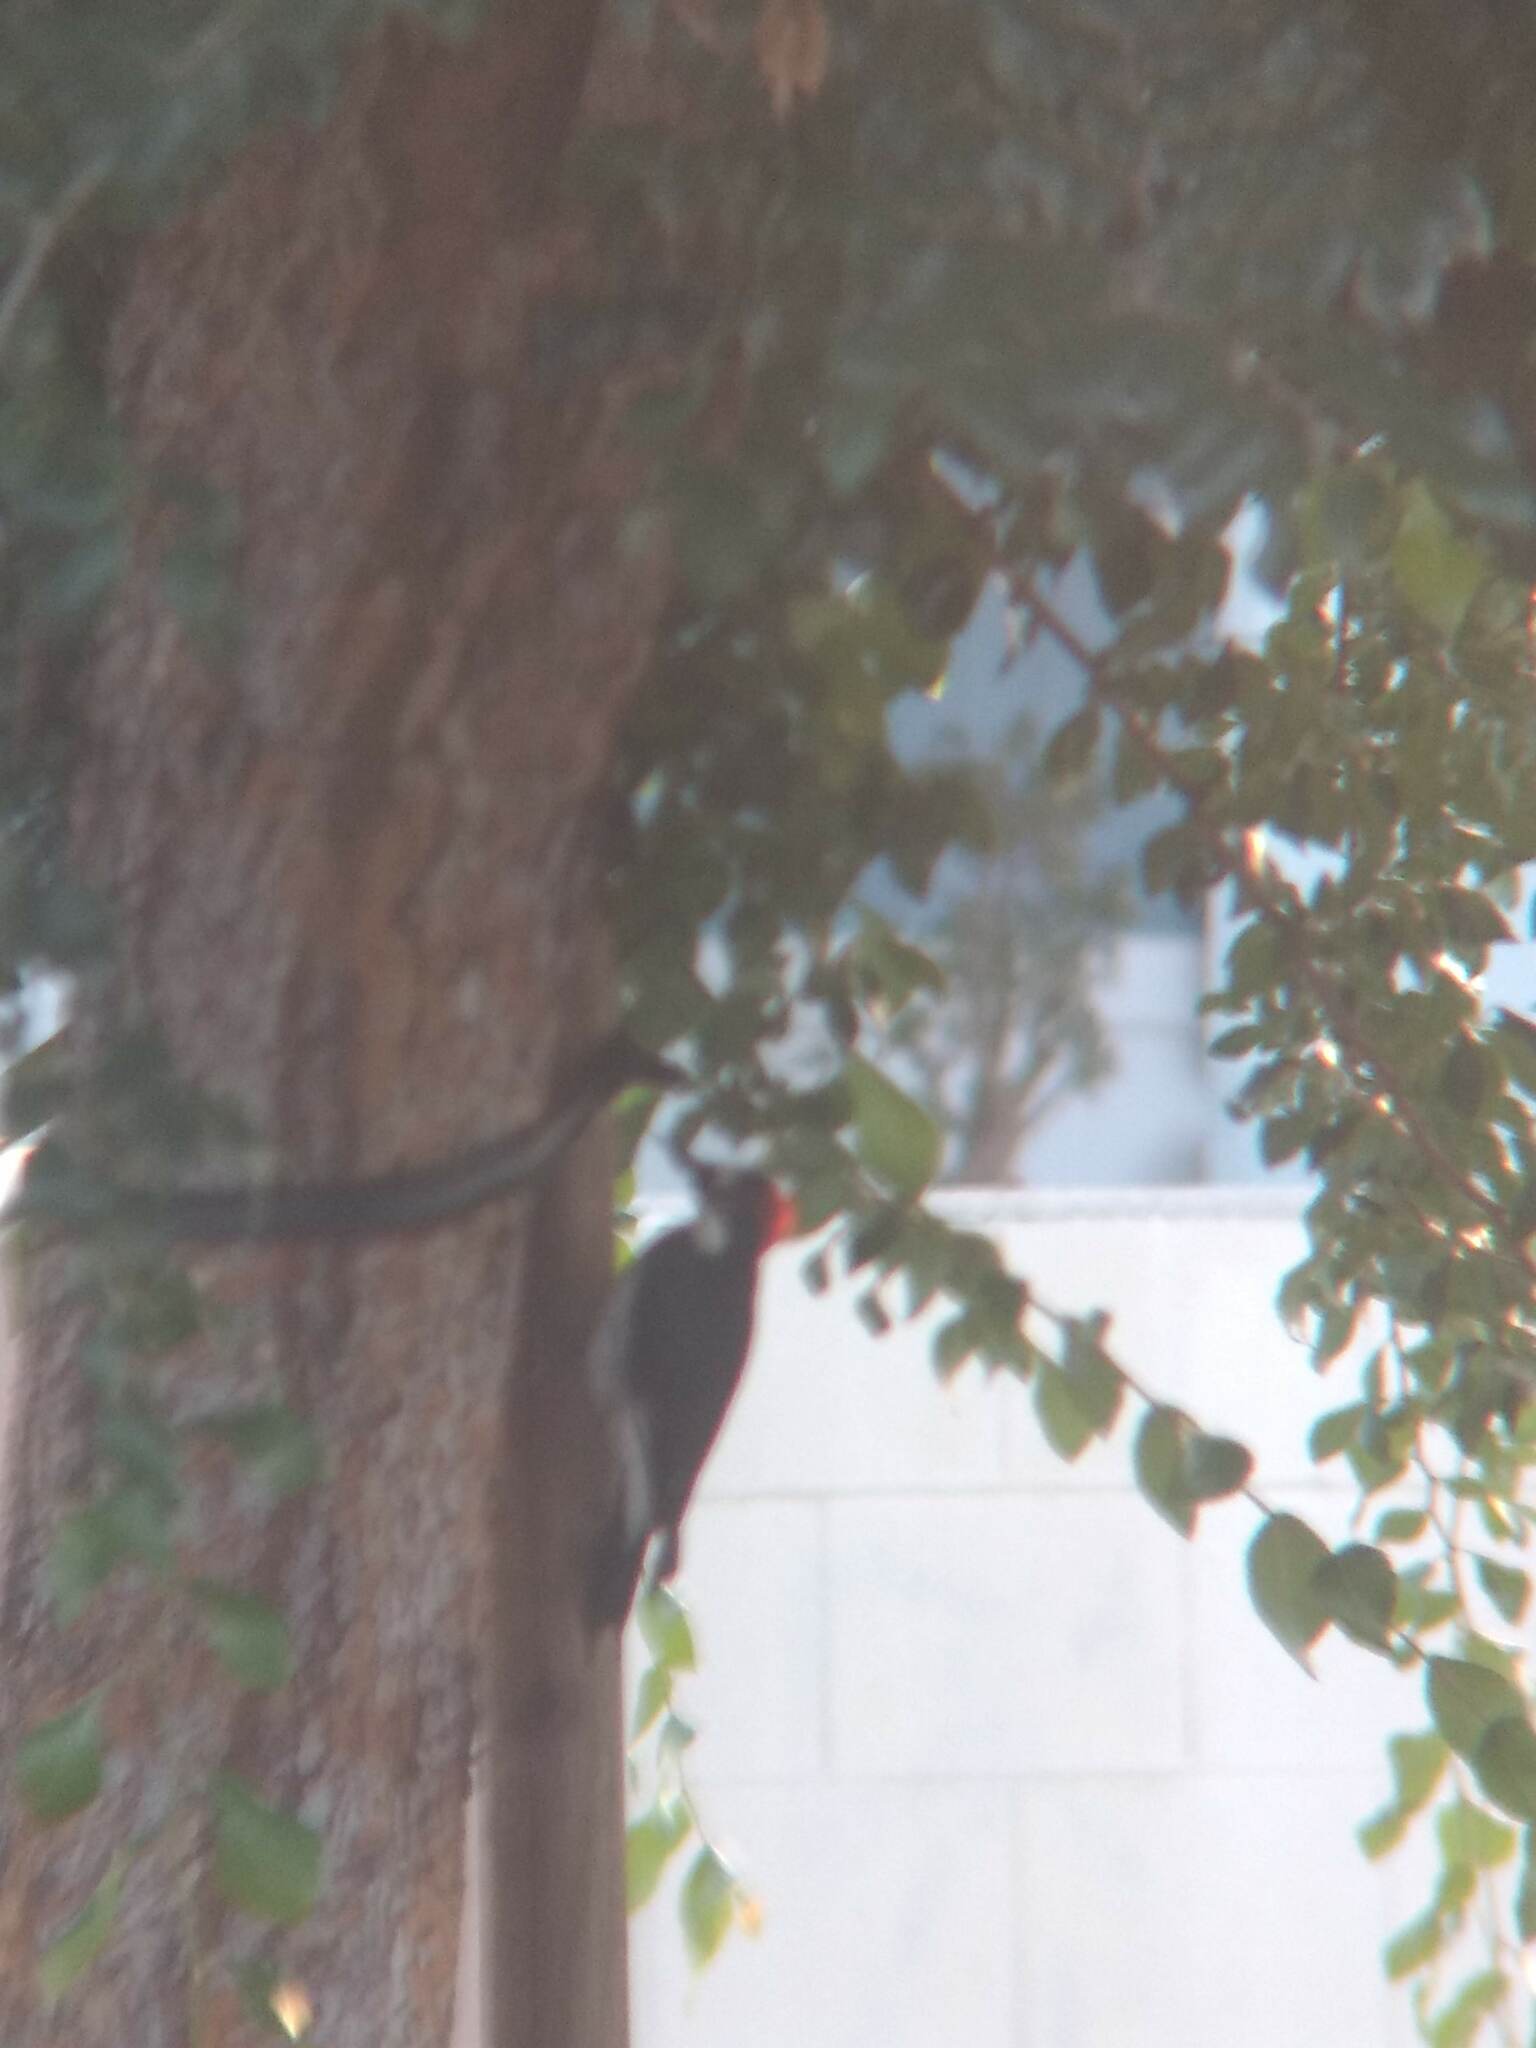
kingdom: Animalia
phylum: Chordata
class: Aves
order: Piciformes
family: Picidae
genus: Melanerpes
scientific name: Melanerpes formicivorus
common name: Acorn woodpecker
